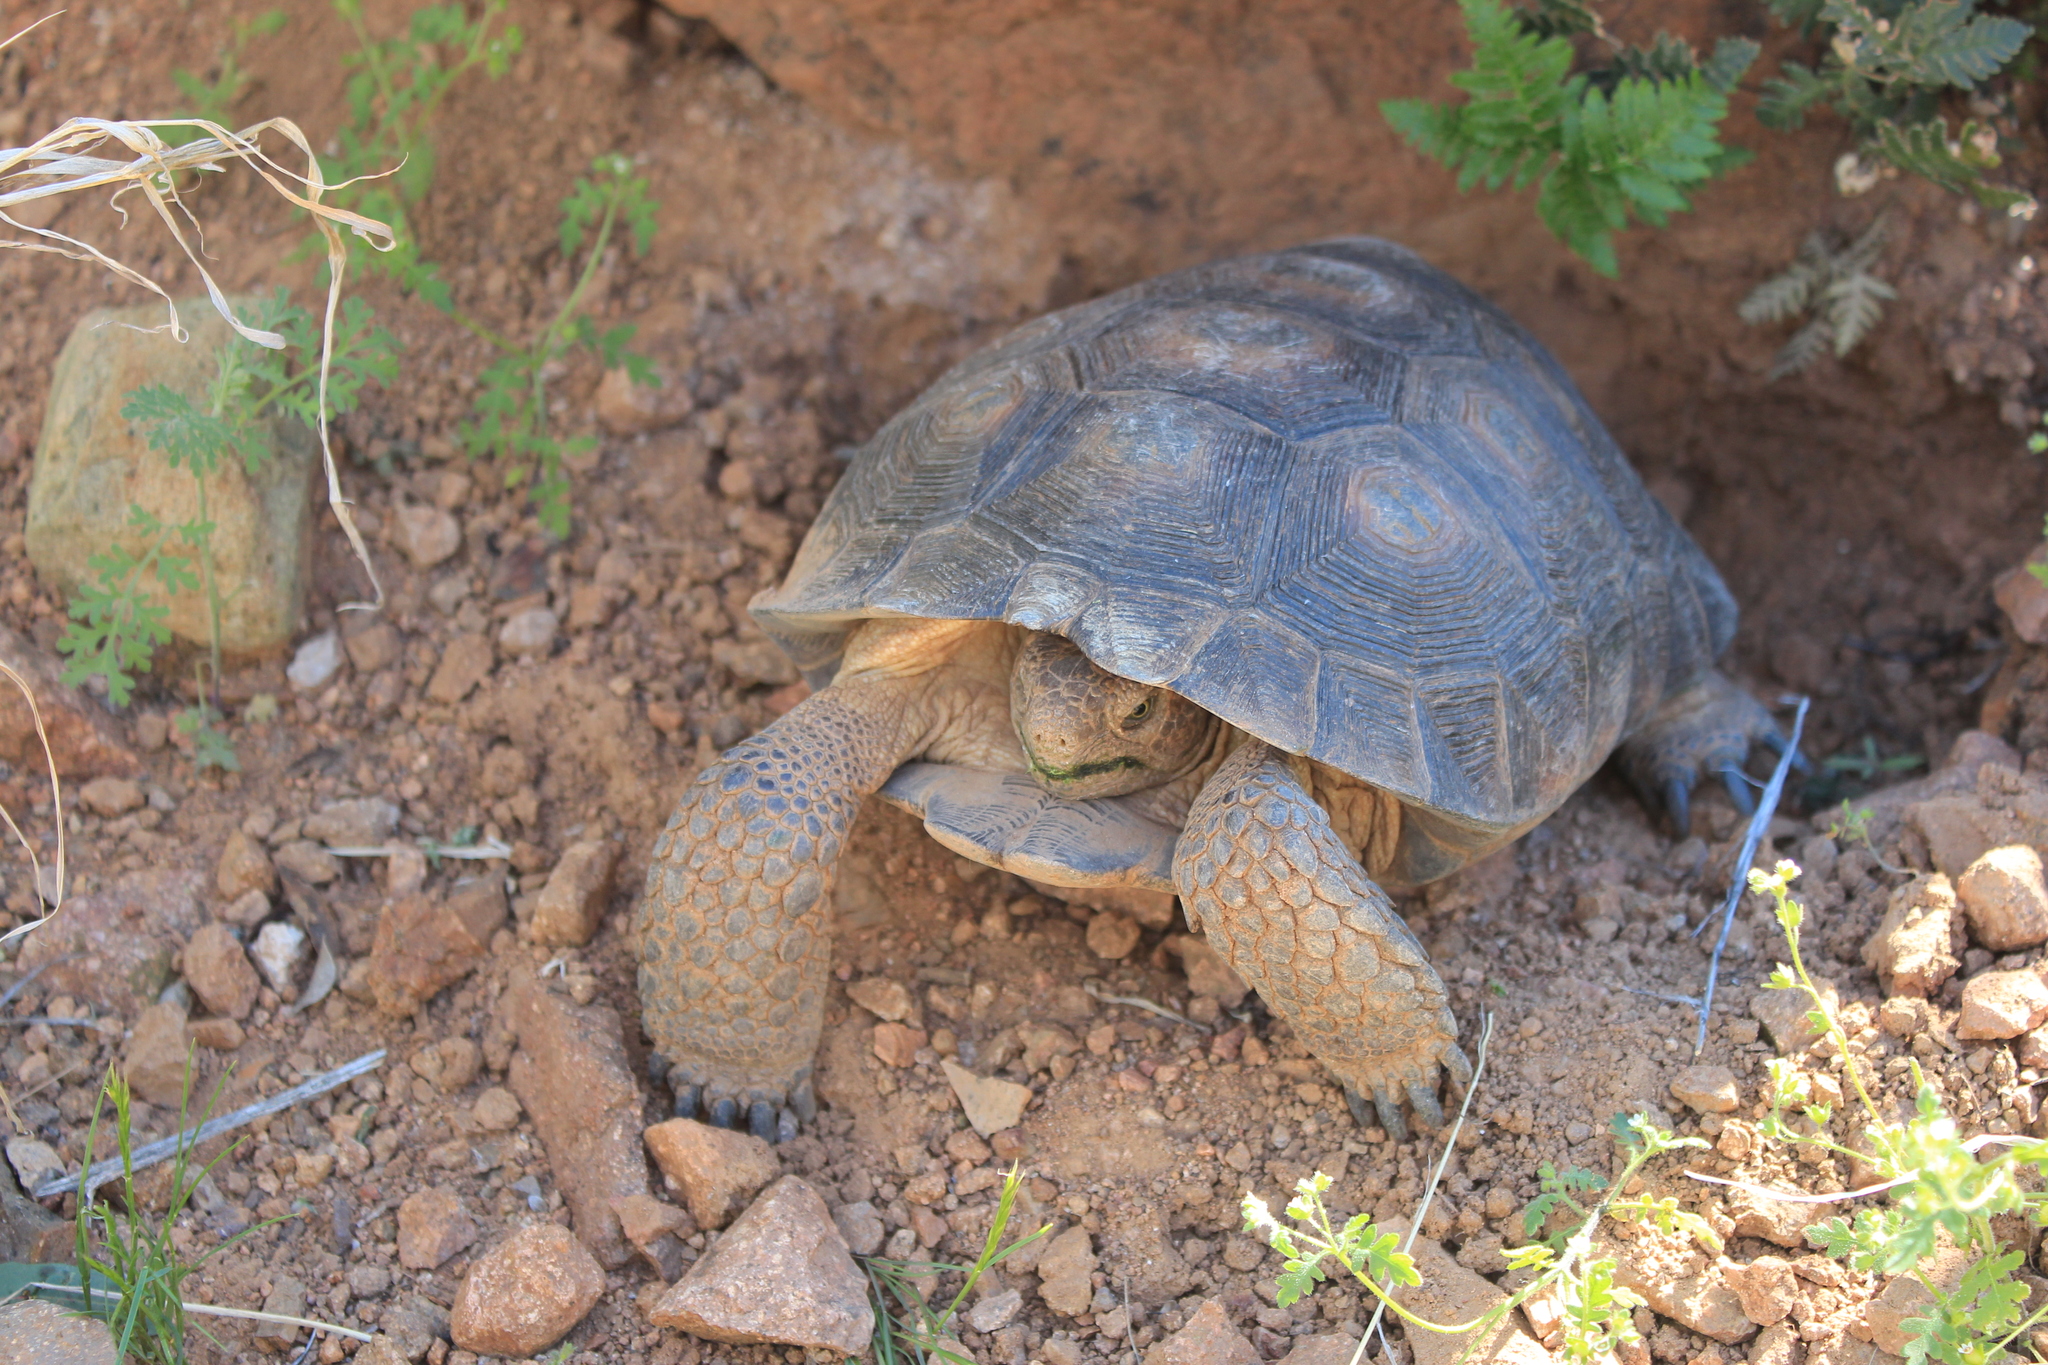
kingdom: Animalia
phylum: Chordata
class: Testudines
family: Testudinidae
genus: Gopherus
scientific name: Gopherus morafkai
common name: Sonoran desert tortoise
